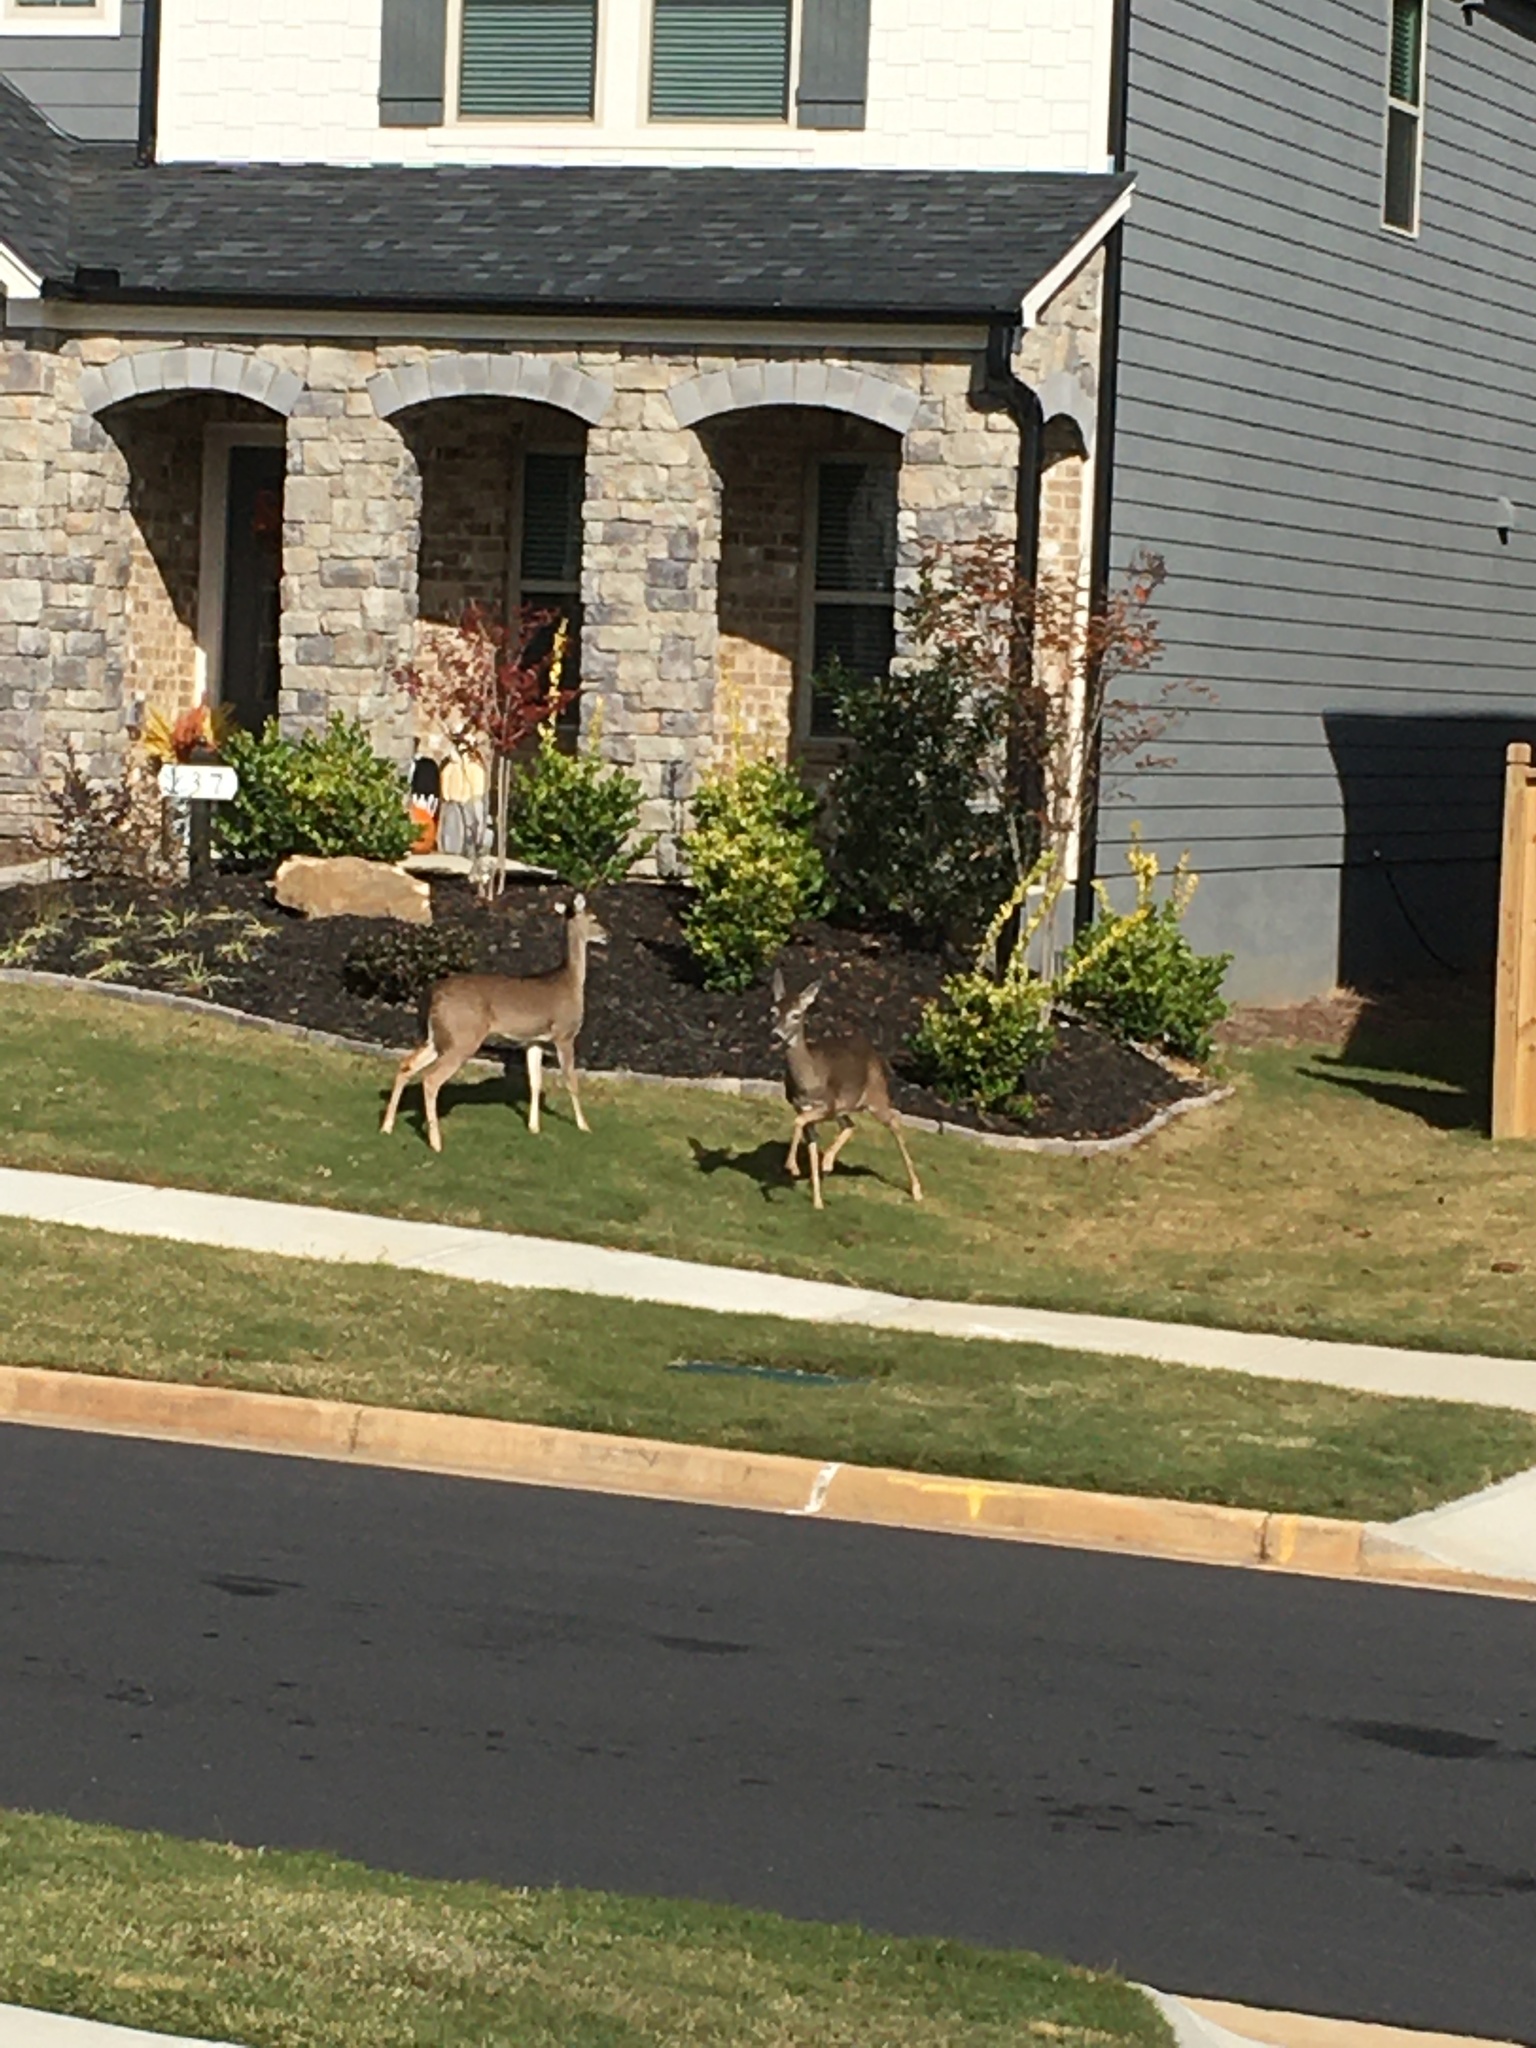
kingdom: Animalia
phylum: Chordata
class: Mammalia
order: Artiodactyla
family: Cervidae
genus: Odocoileus
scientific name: Odocoileus virginianus
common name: White-tailed deer
